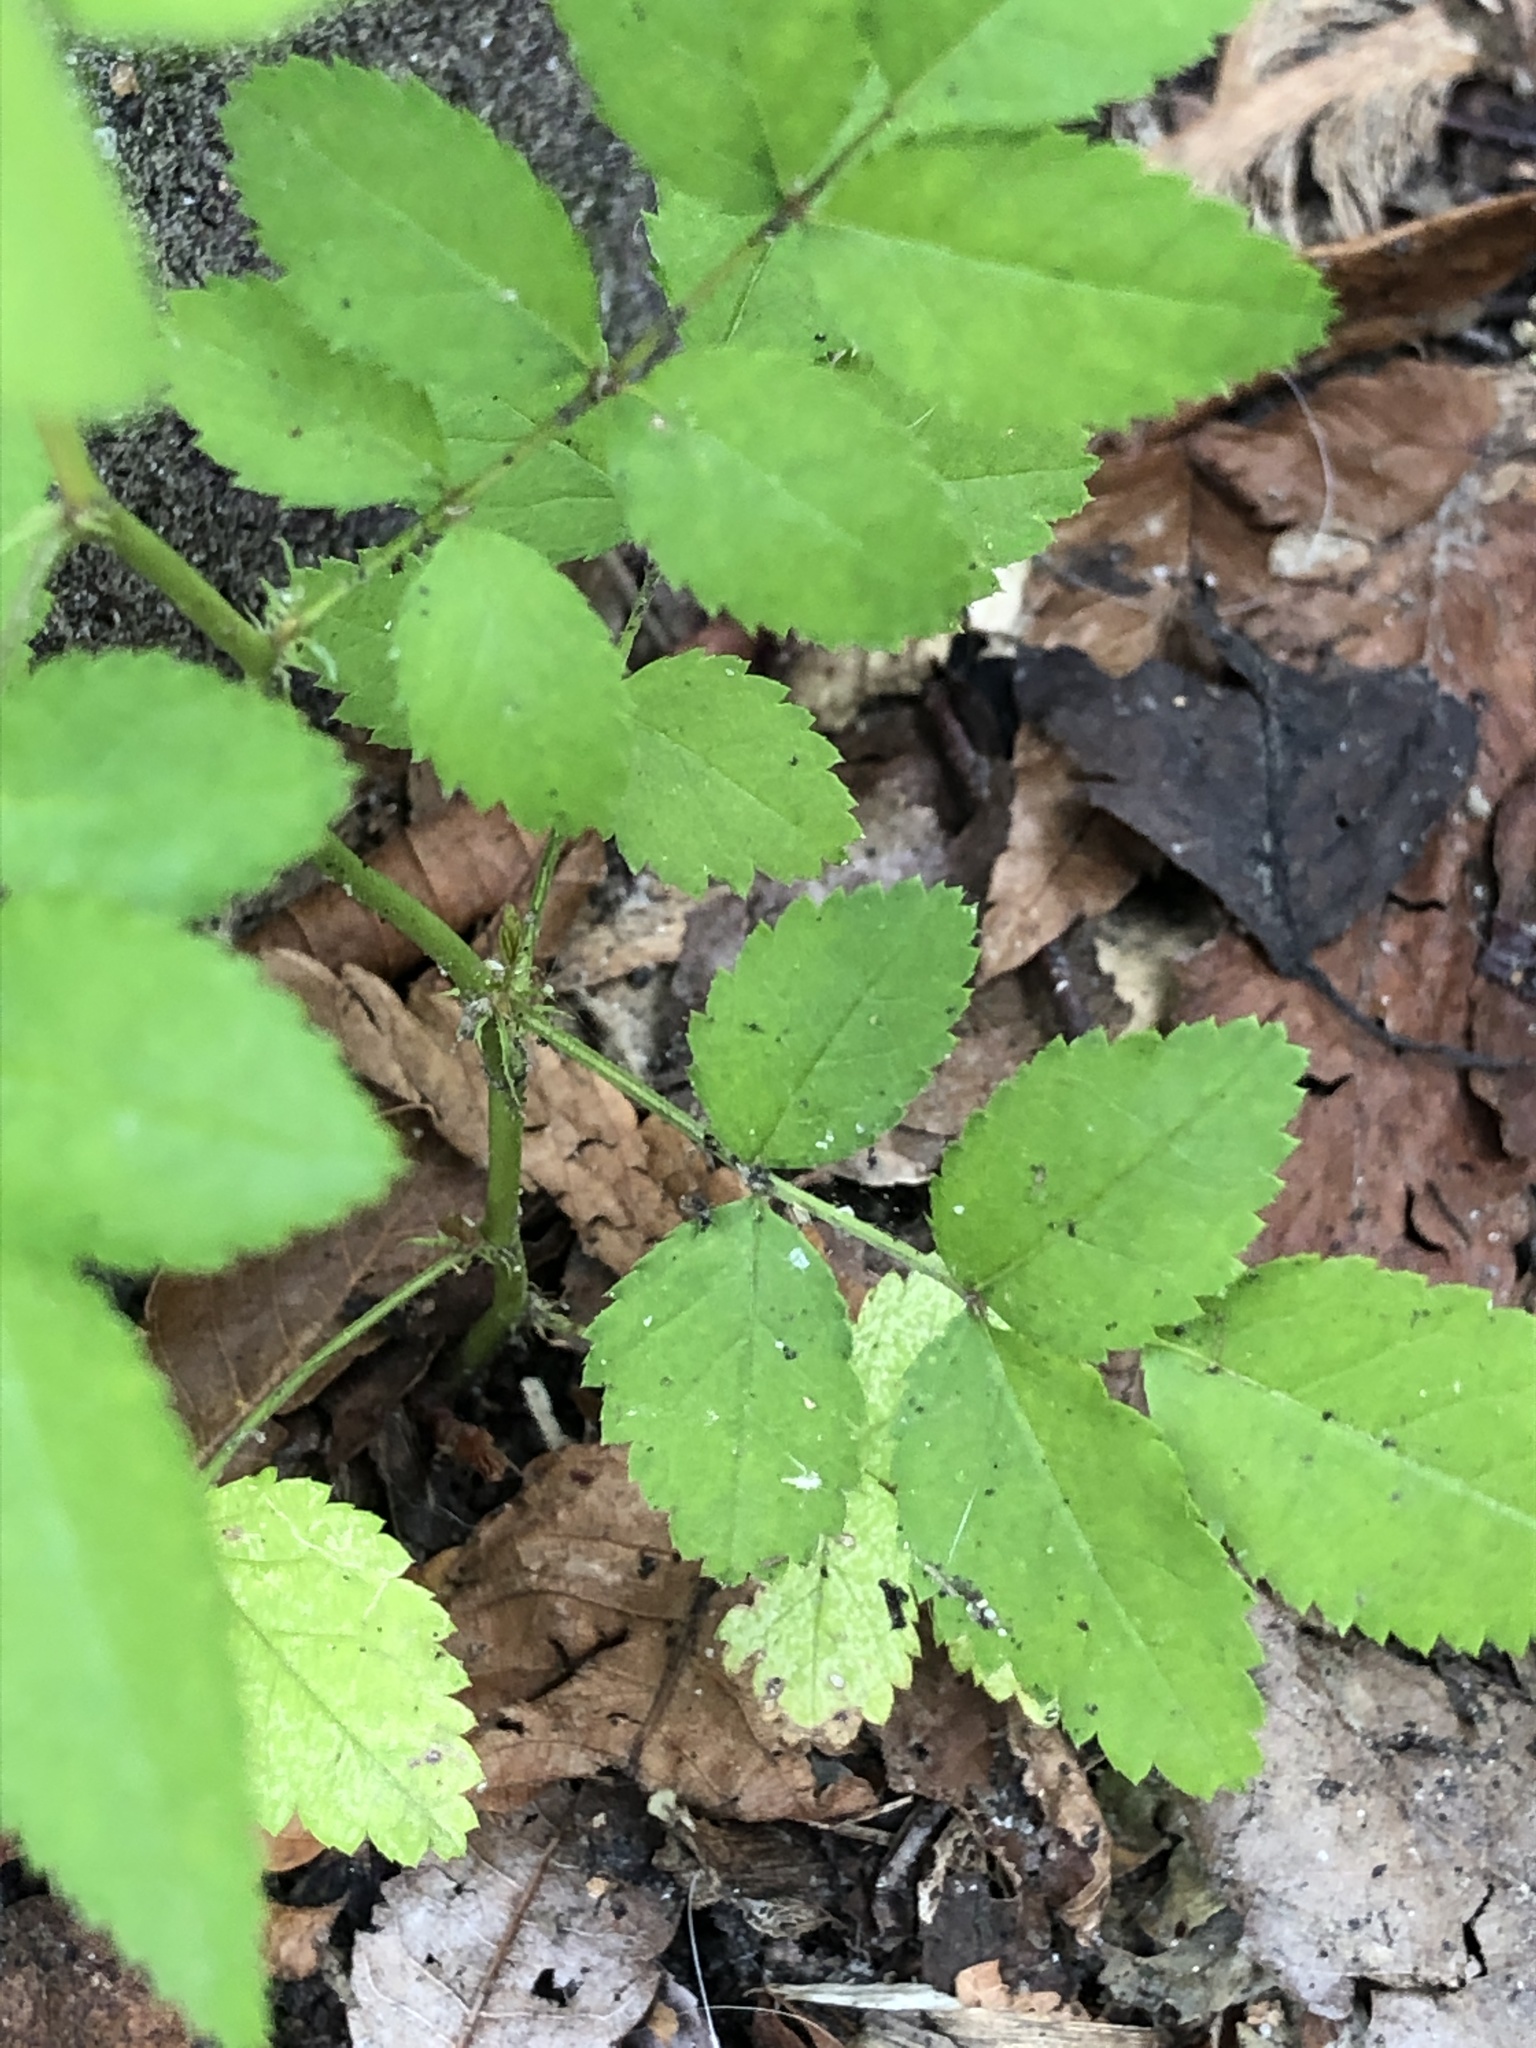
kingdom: Plantae
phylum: Tracheophyta
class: Magnoliopsida
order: Rosales
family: Rosaceae
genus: Rosa
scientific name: Rosa multiflora
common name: Multiflora rose
